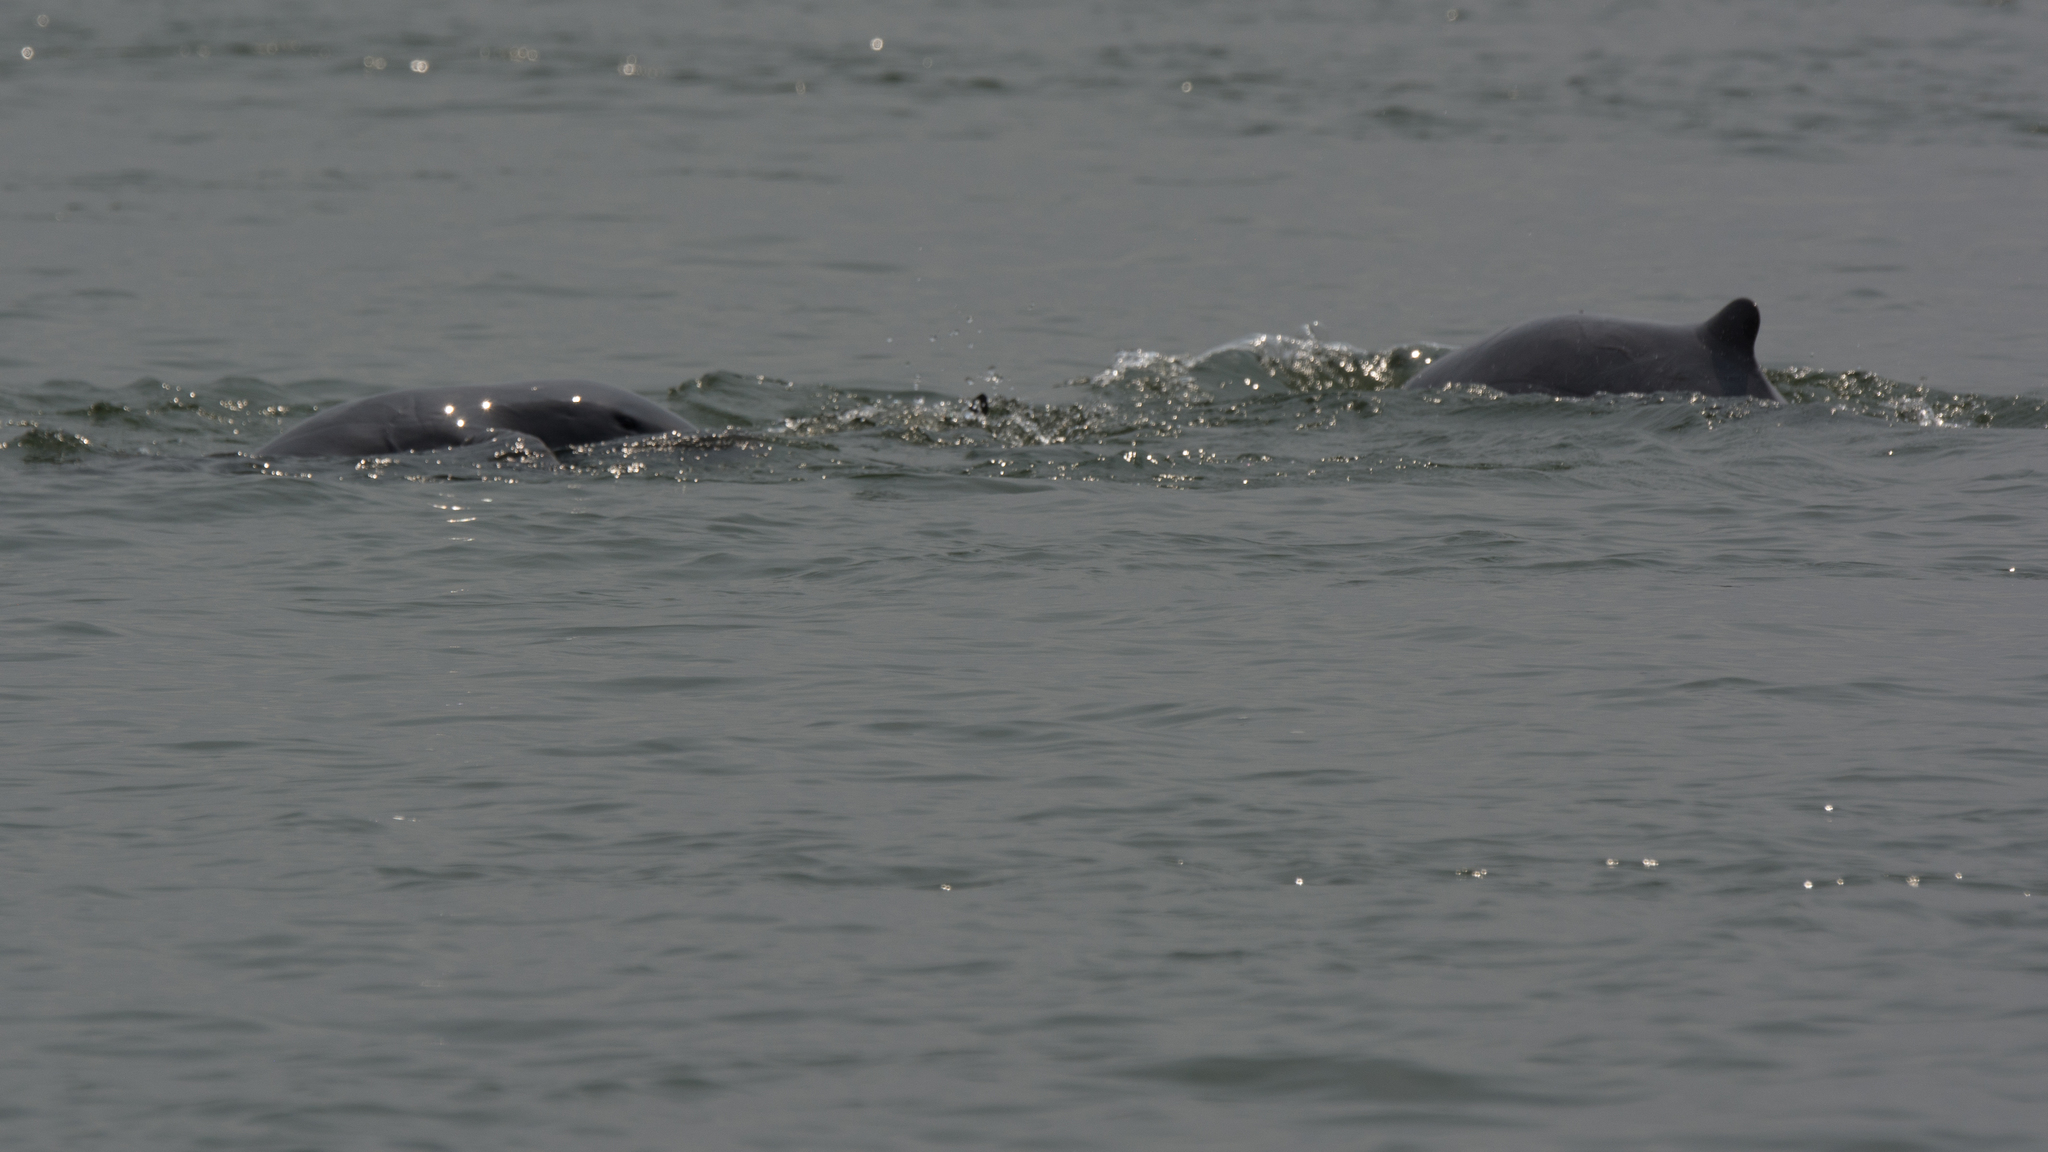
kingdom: Animalia
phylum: Chordata
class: Mammalia
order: Cetacea
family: Delphinidae
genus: Orcaella
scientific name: Orcaella brevirostris
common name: Irrawaddy dolphin
